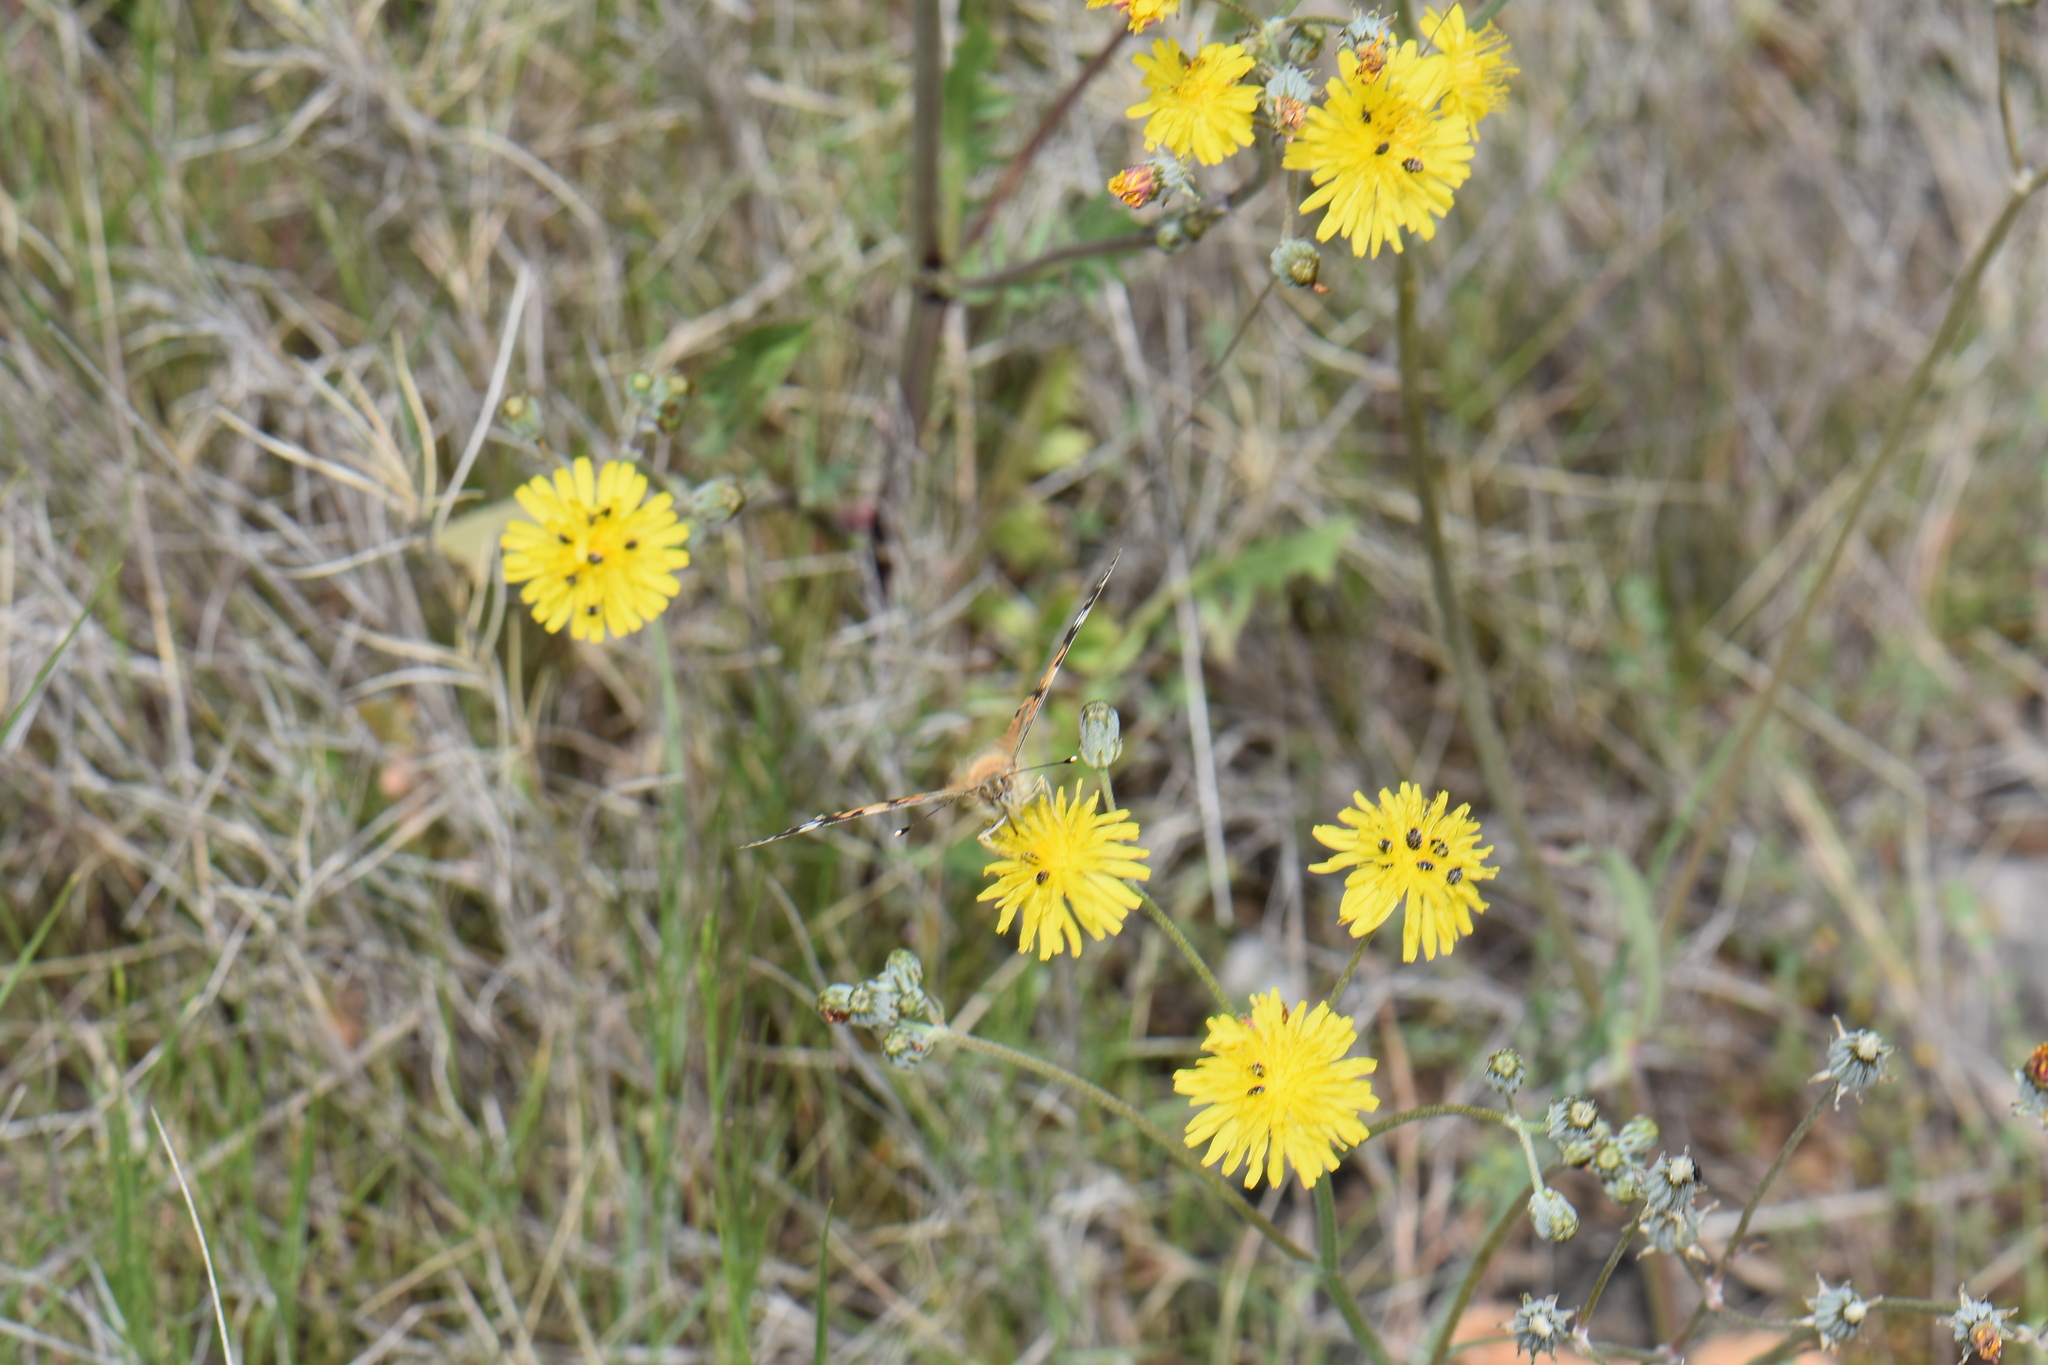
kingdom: Animalia
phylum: Arthropoda
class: Insecta
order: Lepidoptera
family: Nymphalidae
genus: Vanessa
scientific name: Vanessa cardui
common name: Painted lady
